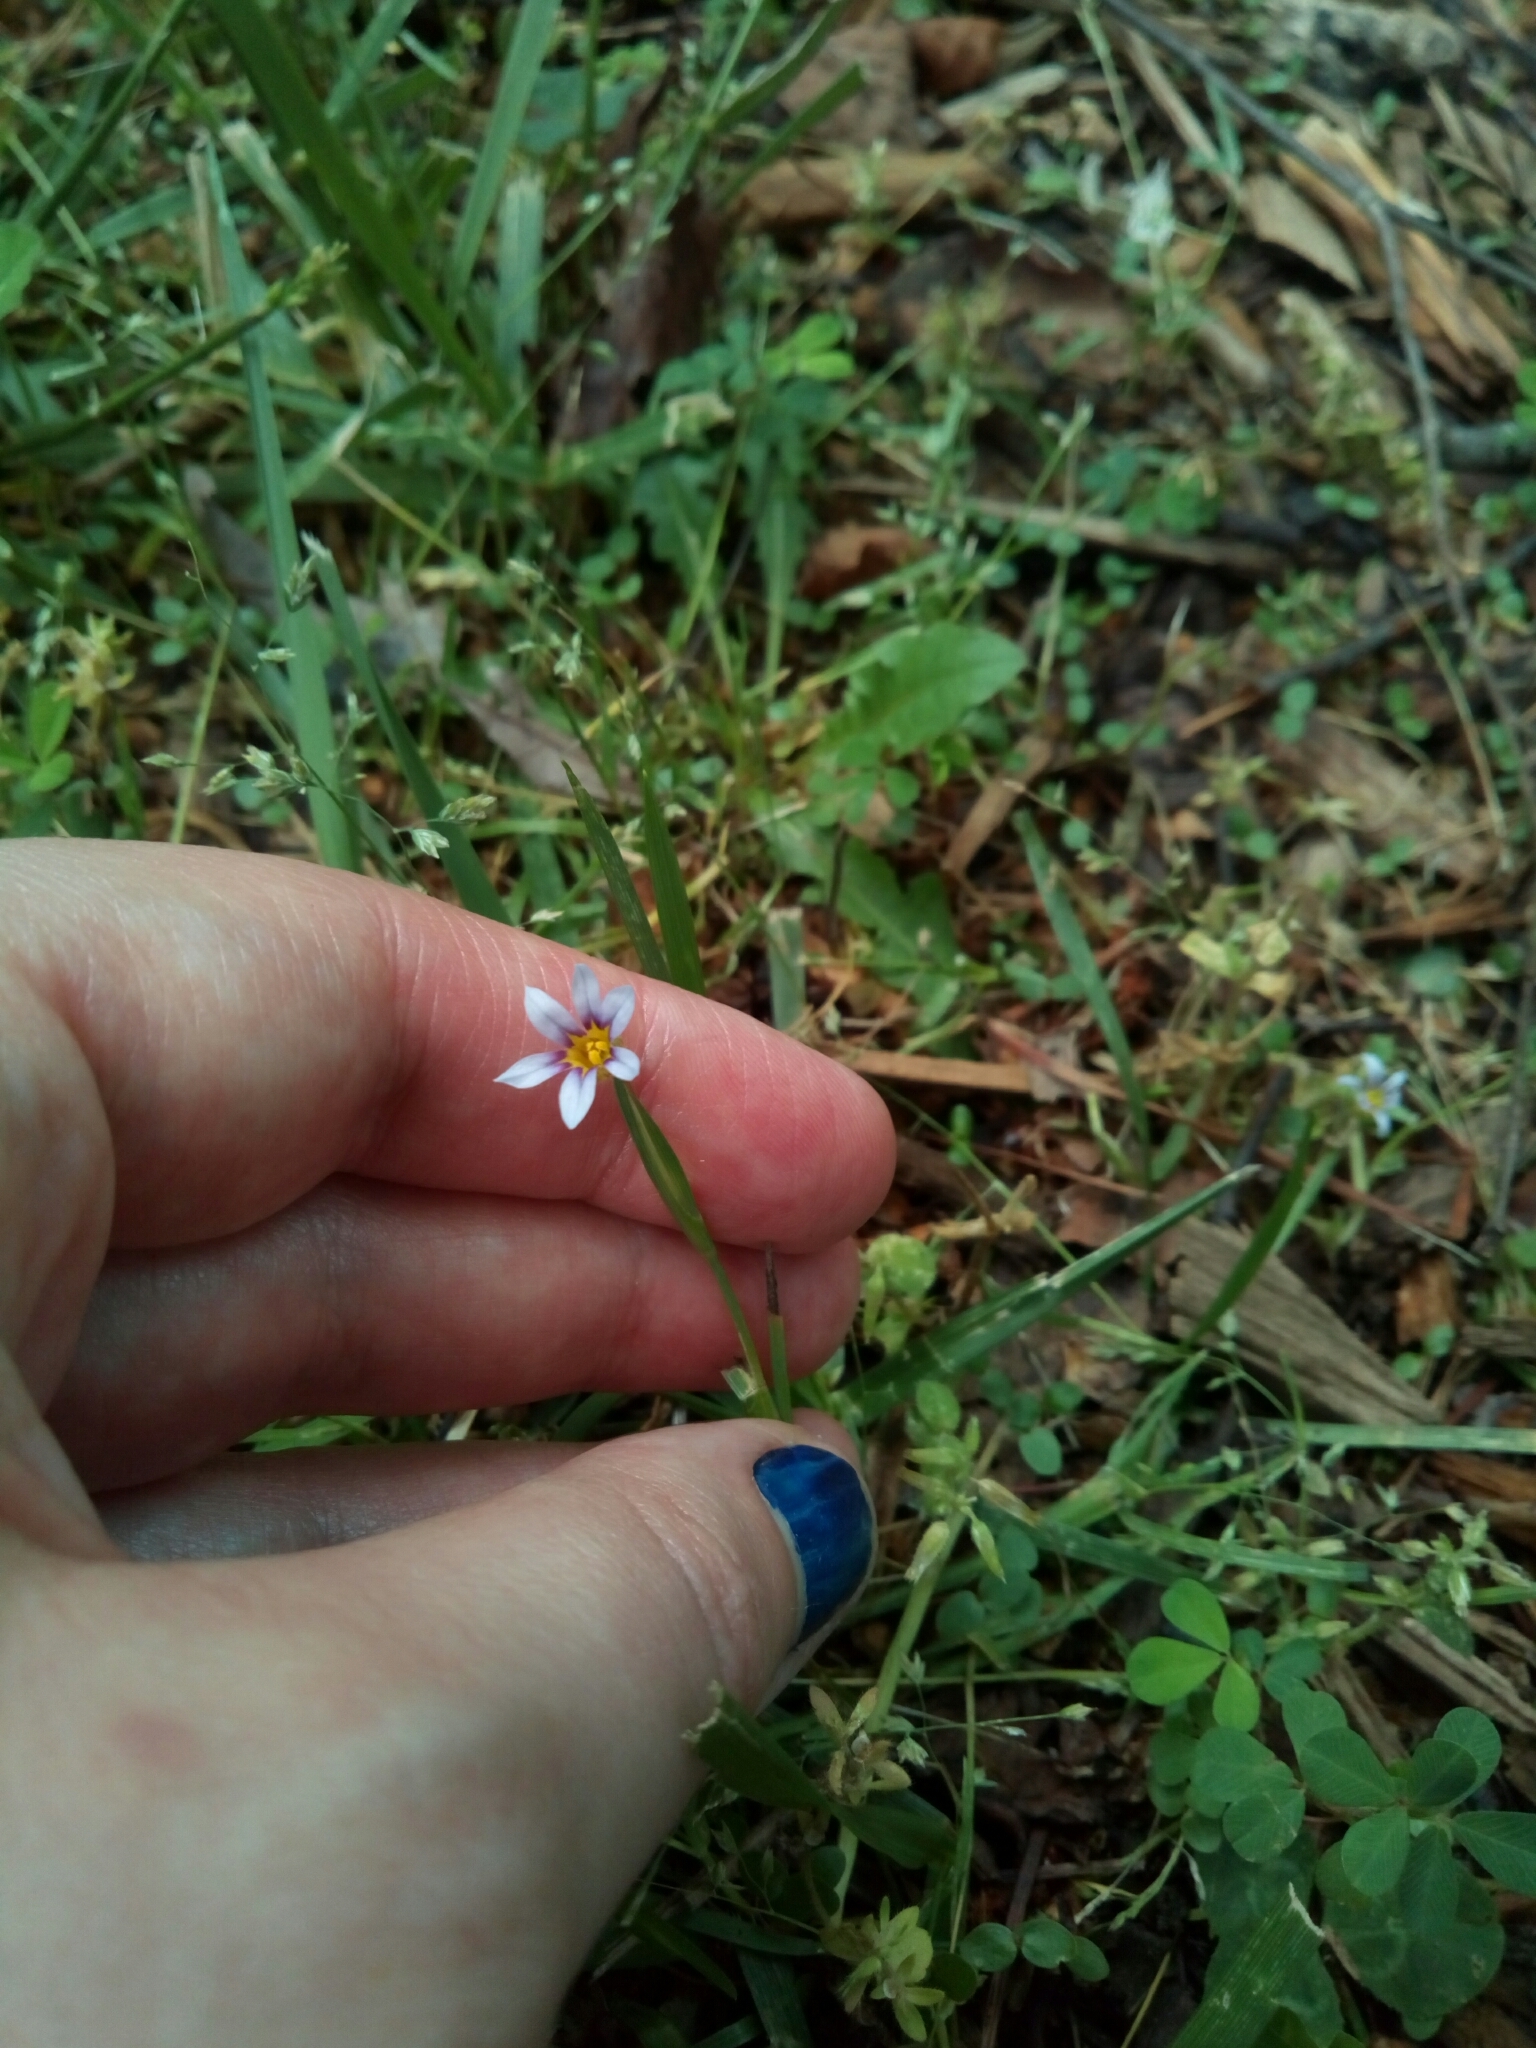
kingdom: Plantae
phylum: Tracheophyta
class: Liliopsida
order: Asparagales
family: Iridaceae
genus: Sisyrinchium
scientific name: Sisyrinchium micranthum
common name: Bermuda pigroot
